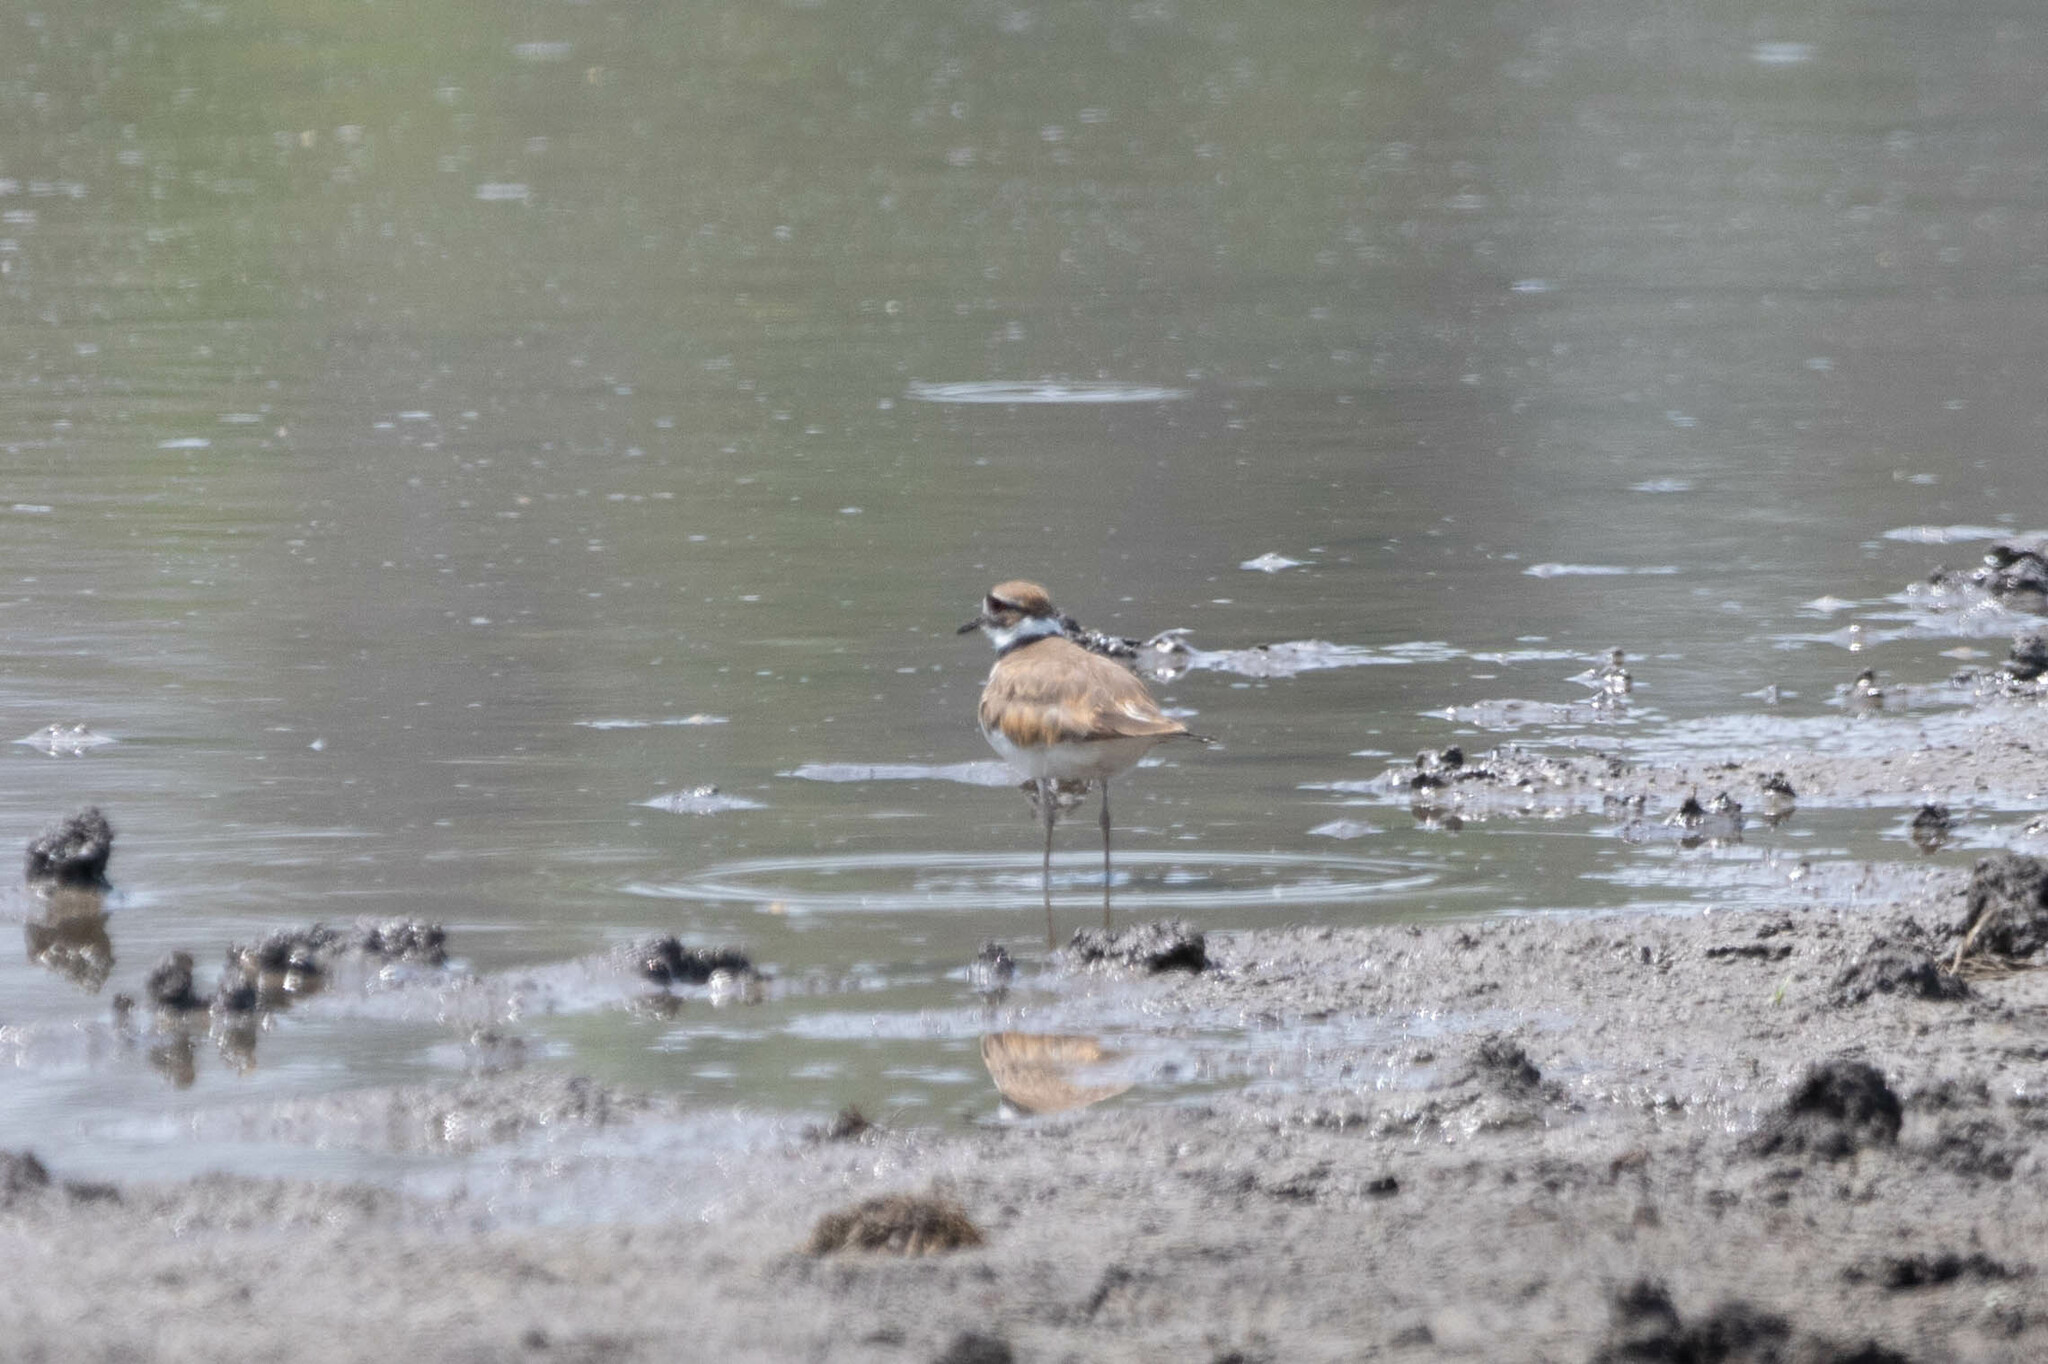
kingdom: Animalia
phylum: Chordata
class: Aves
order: Charadriiformes
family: Charadriidae
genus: Charadrius
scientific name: Charadrius vociferus
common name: Killdeer
